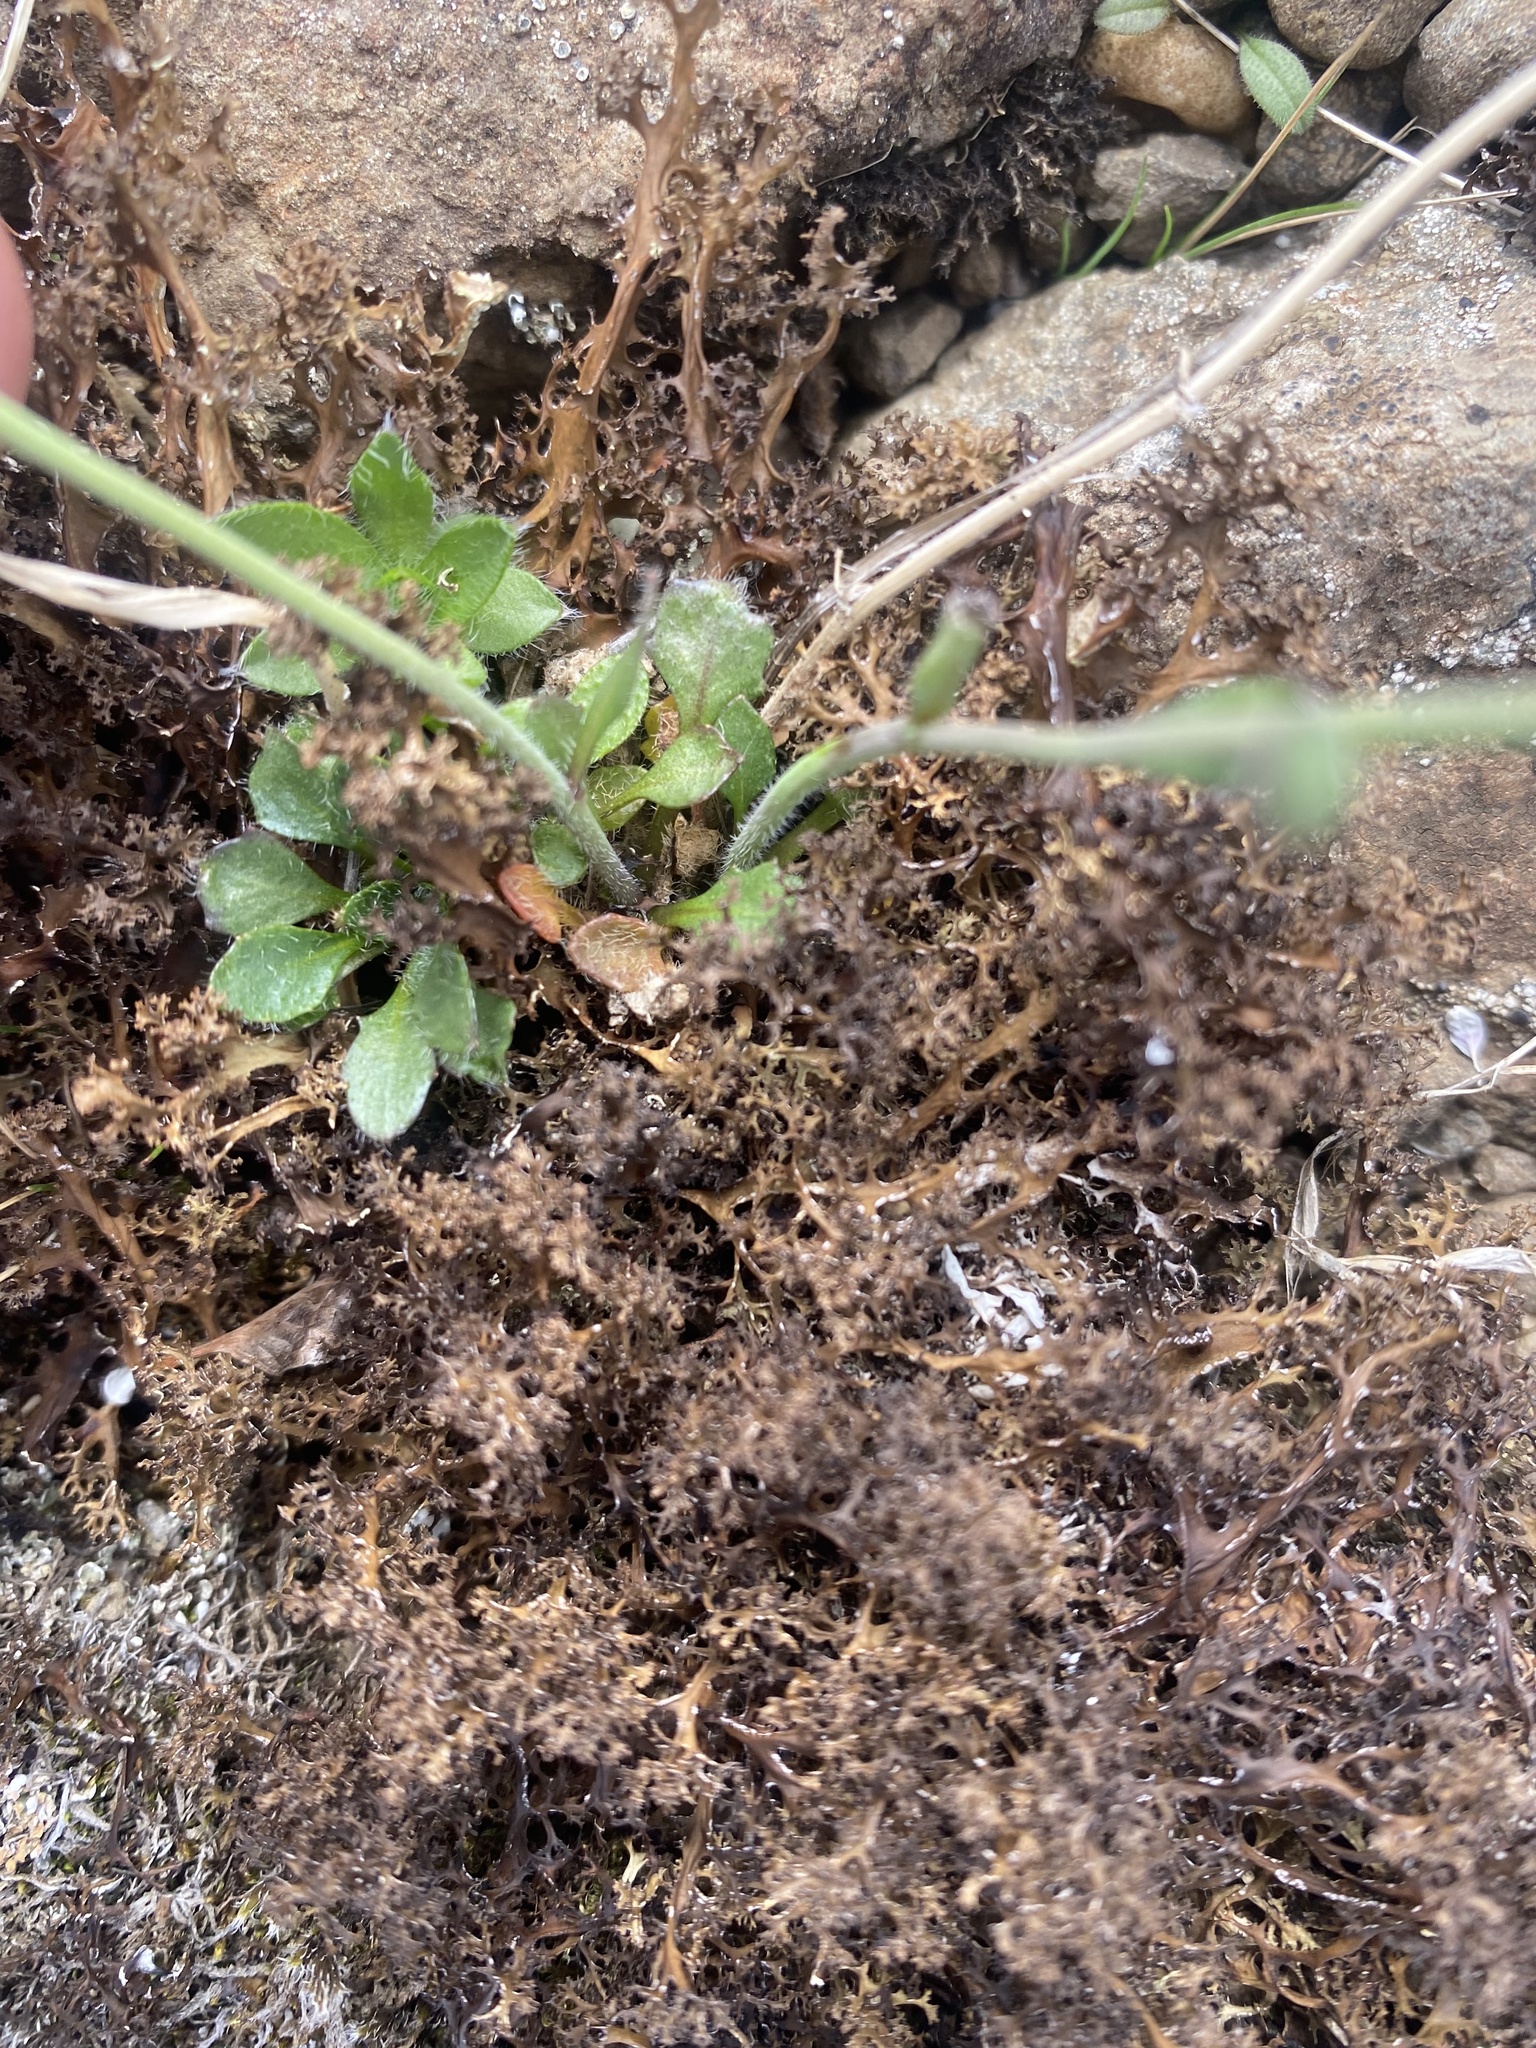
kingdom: Plantae
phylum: Tracheophyta
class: Magnoliopsida
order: Brassicales
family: Brassicaceae
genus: Arabidopsis
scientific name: Arabidopsis lyrata
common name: Lyrate rockcress
